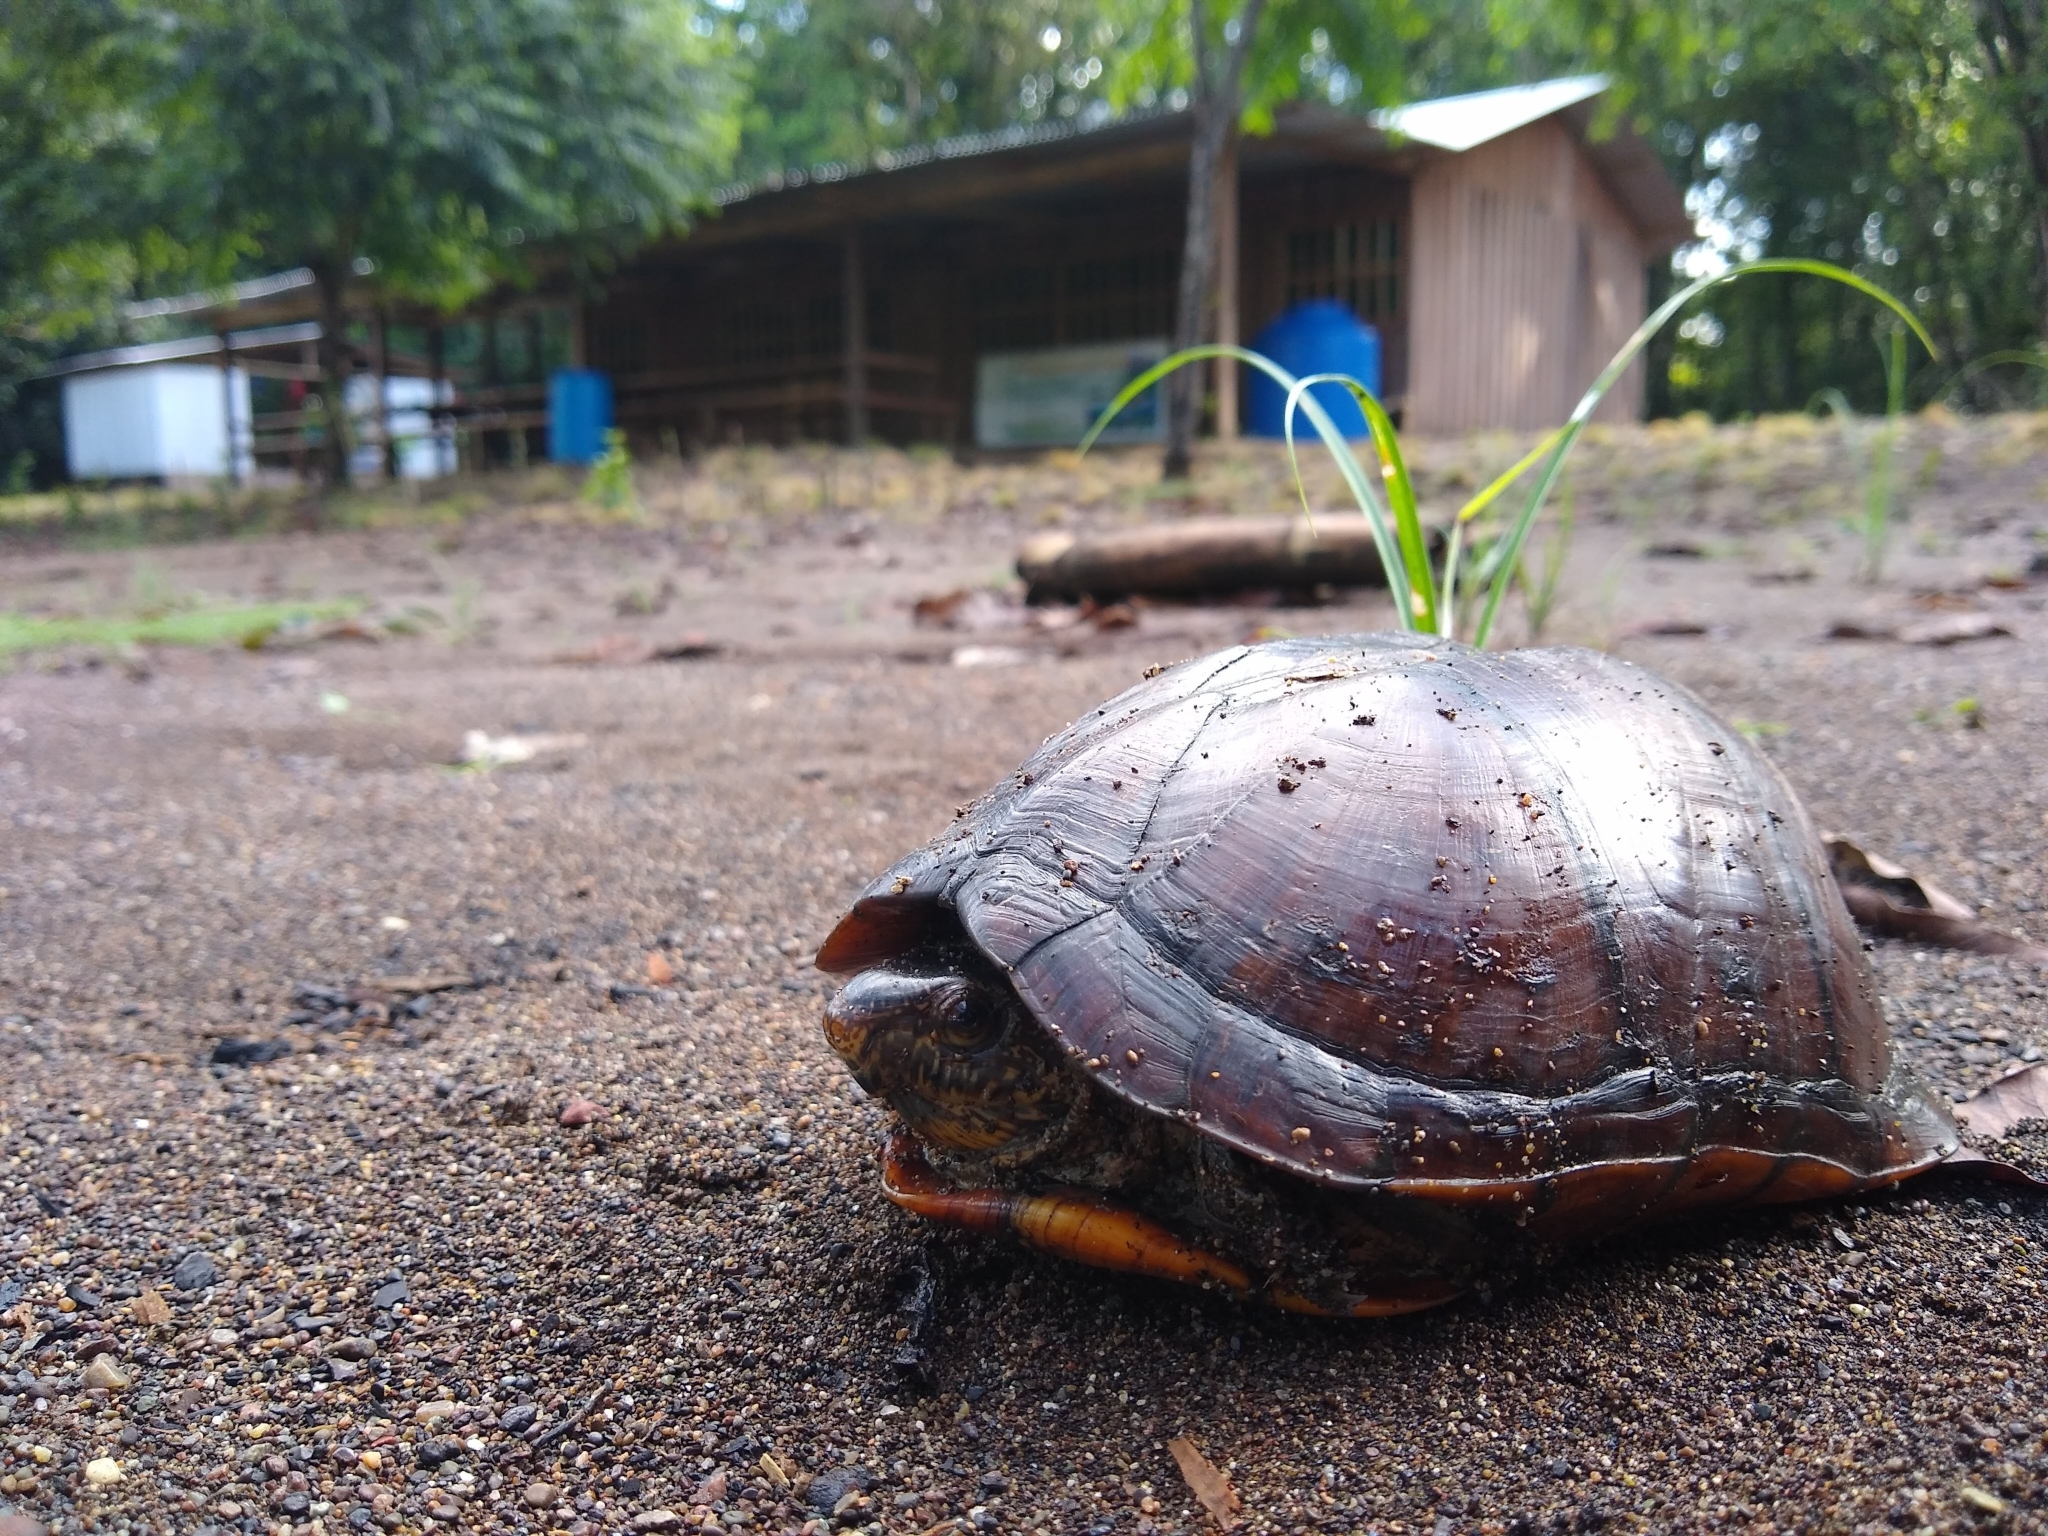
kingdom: Animalia
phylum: Chordata
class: Testudines
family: Kinosternidae
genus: Kinosternon
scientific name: Kinosternon scorpioides
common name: Scorpion mud turtle
